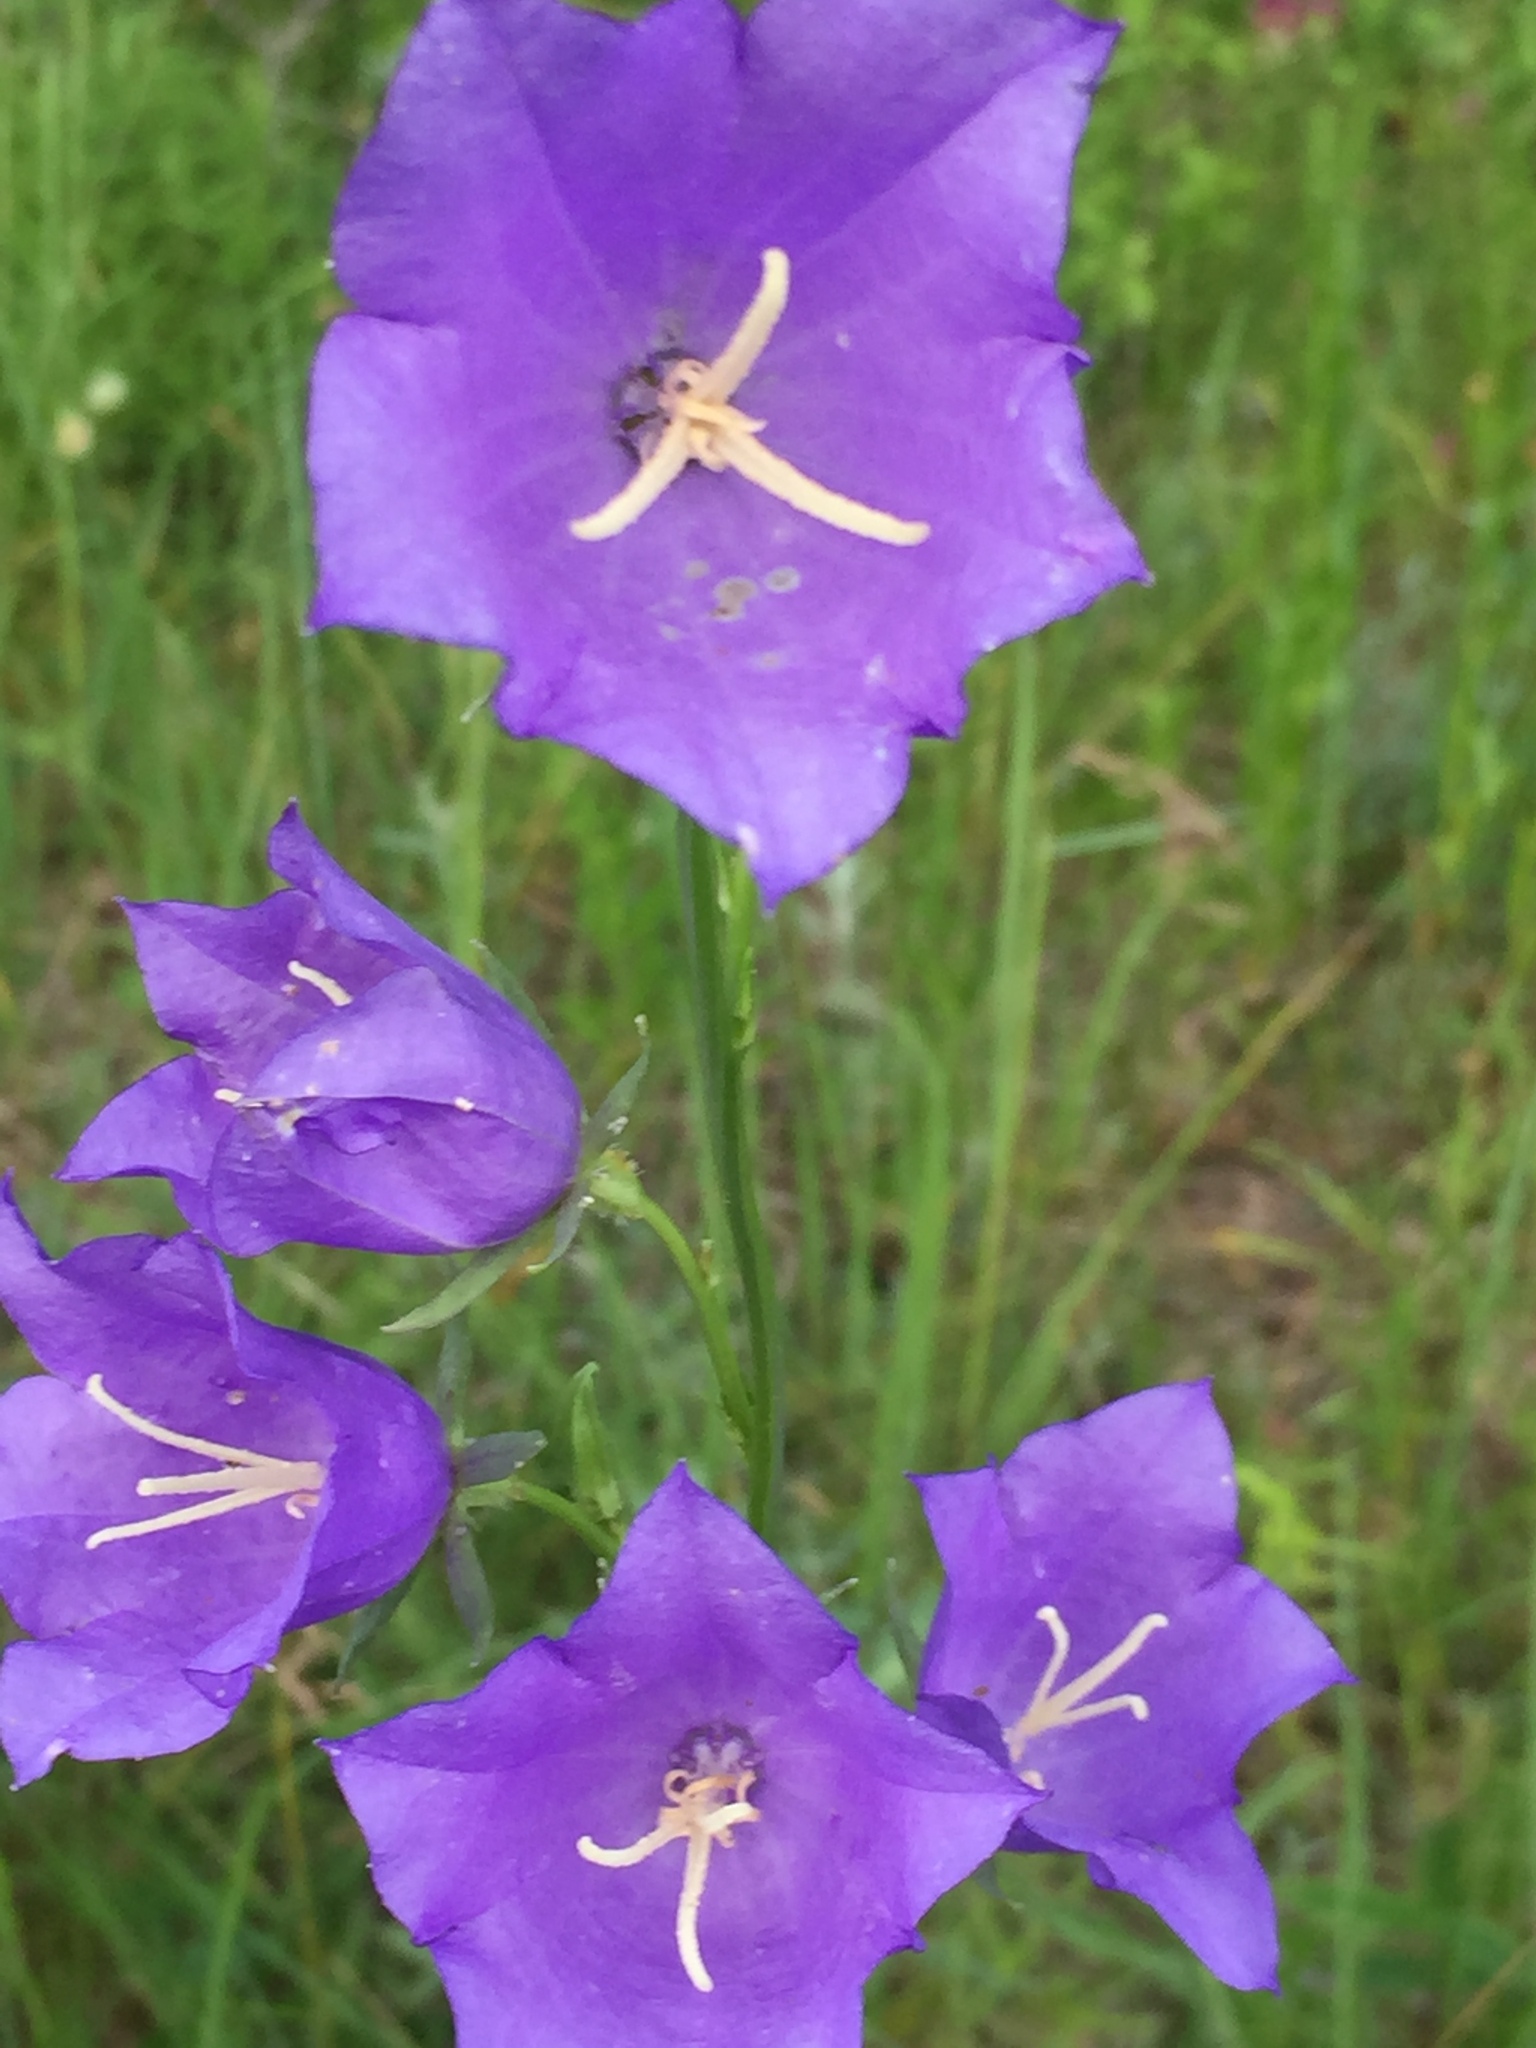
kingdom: Plantae
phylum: Tracheophyta
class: Magnoliopsida
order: Asterales
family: Campanulaceae
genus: Campanula
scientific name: Campanula persicifolia
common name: Peach-leaved bellflower
